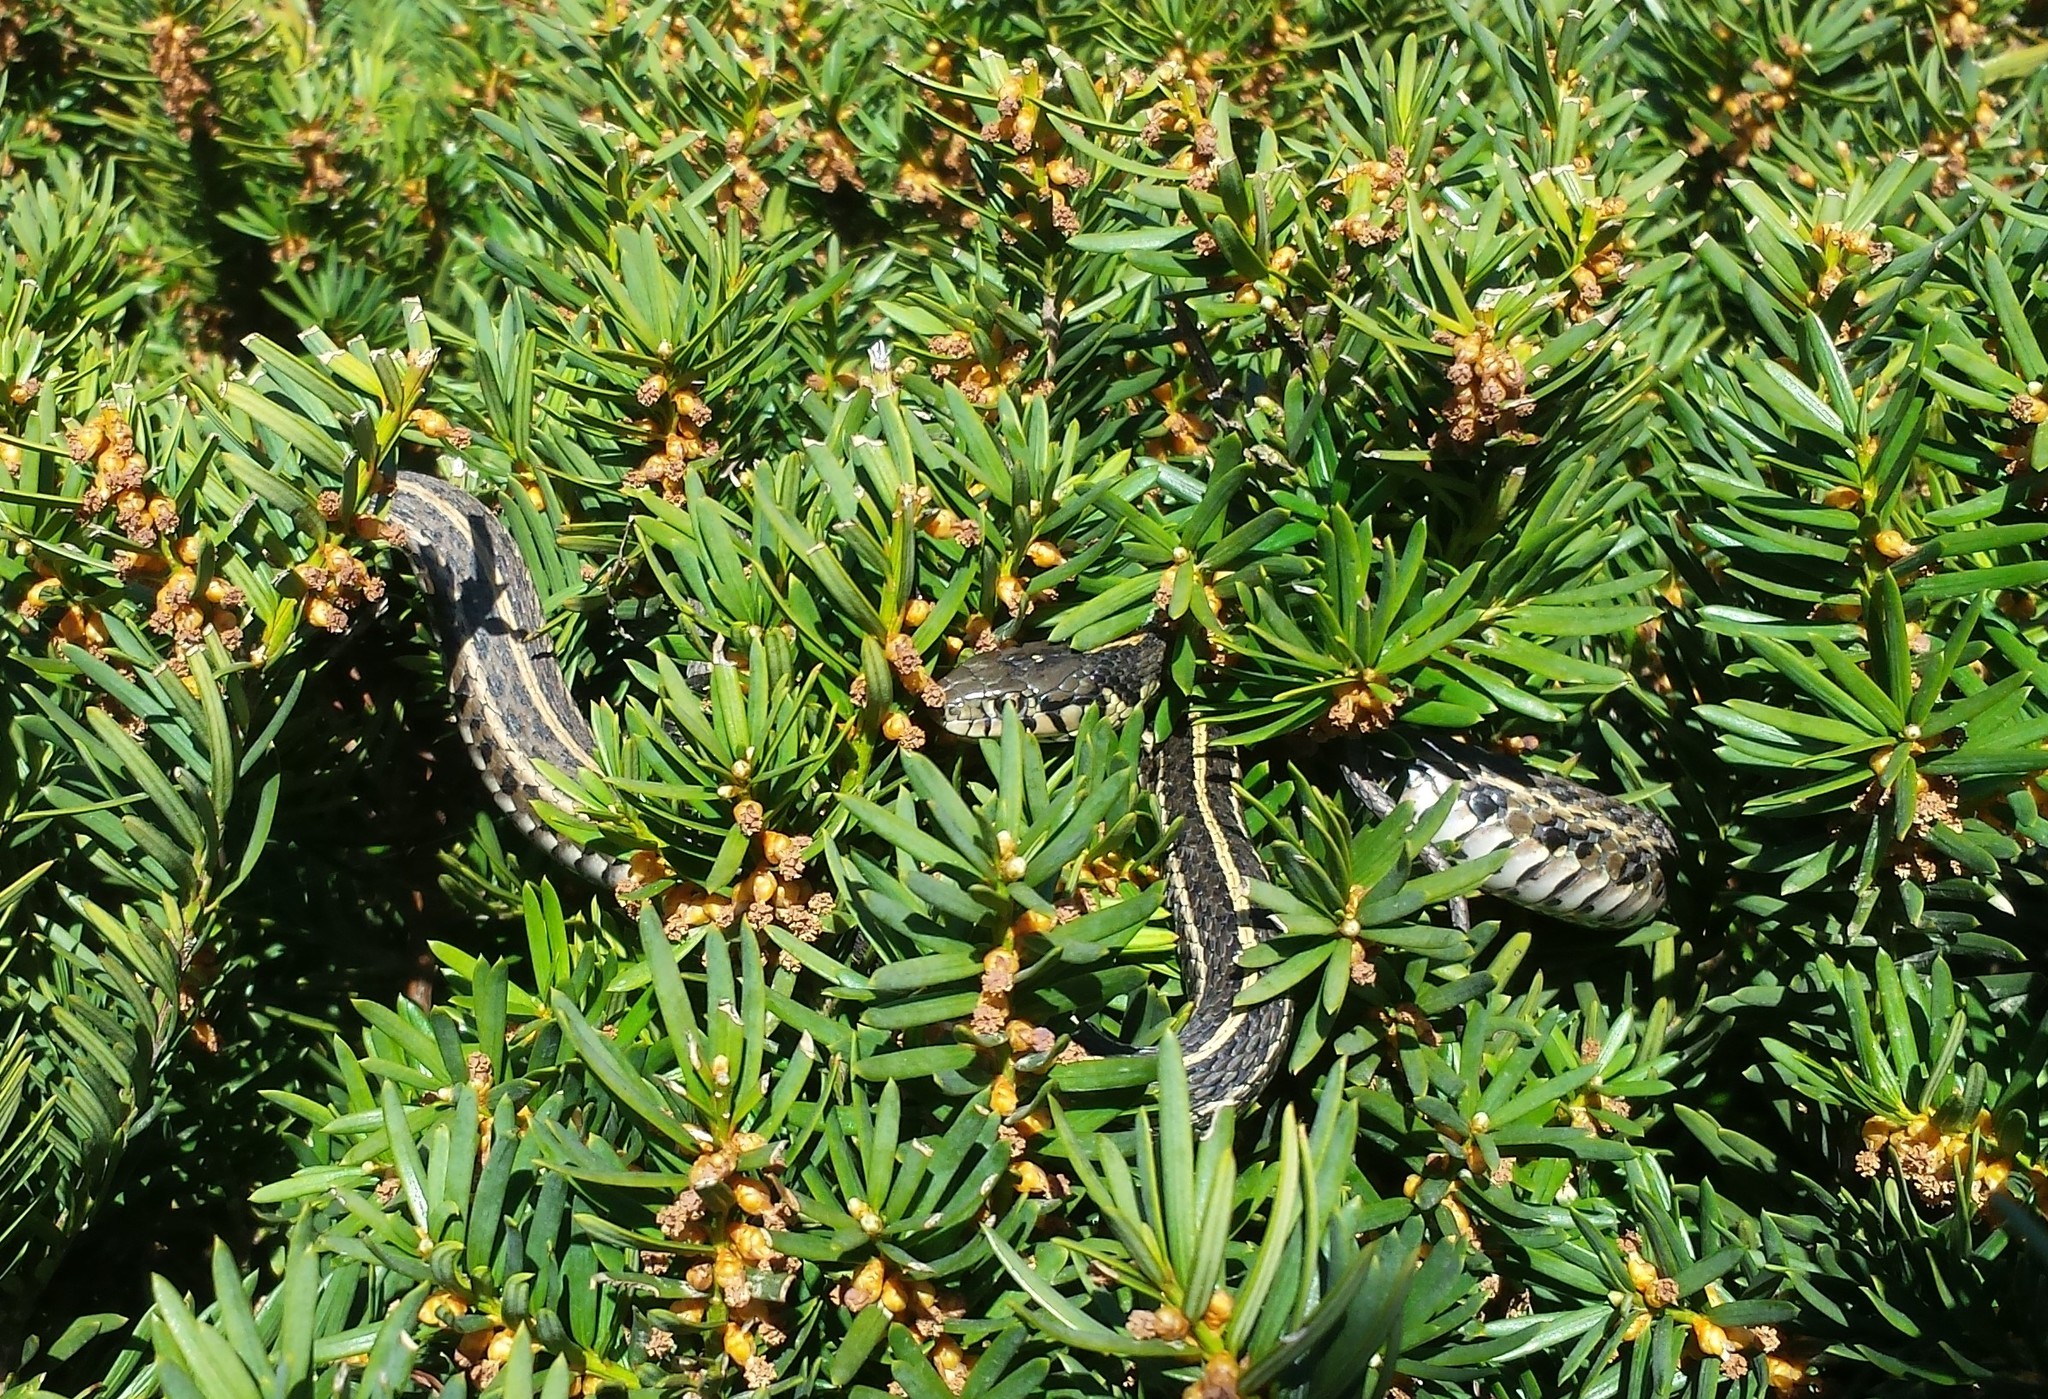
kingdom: Animalia
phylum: Chordata
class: Squamata
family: Colubridae
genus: Thamnophis
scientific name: Thamnophis radix
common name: Plains garter snake
